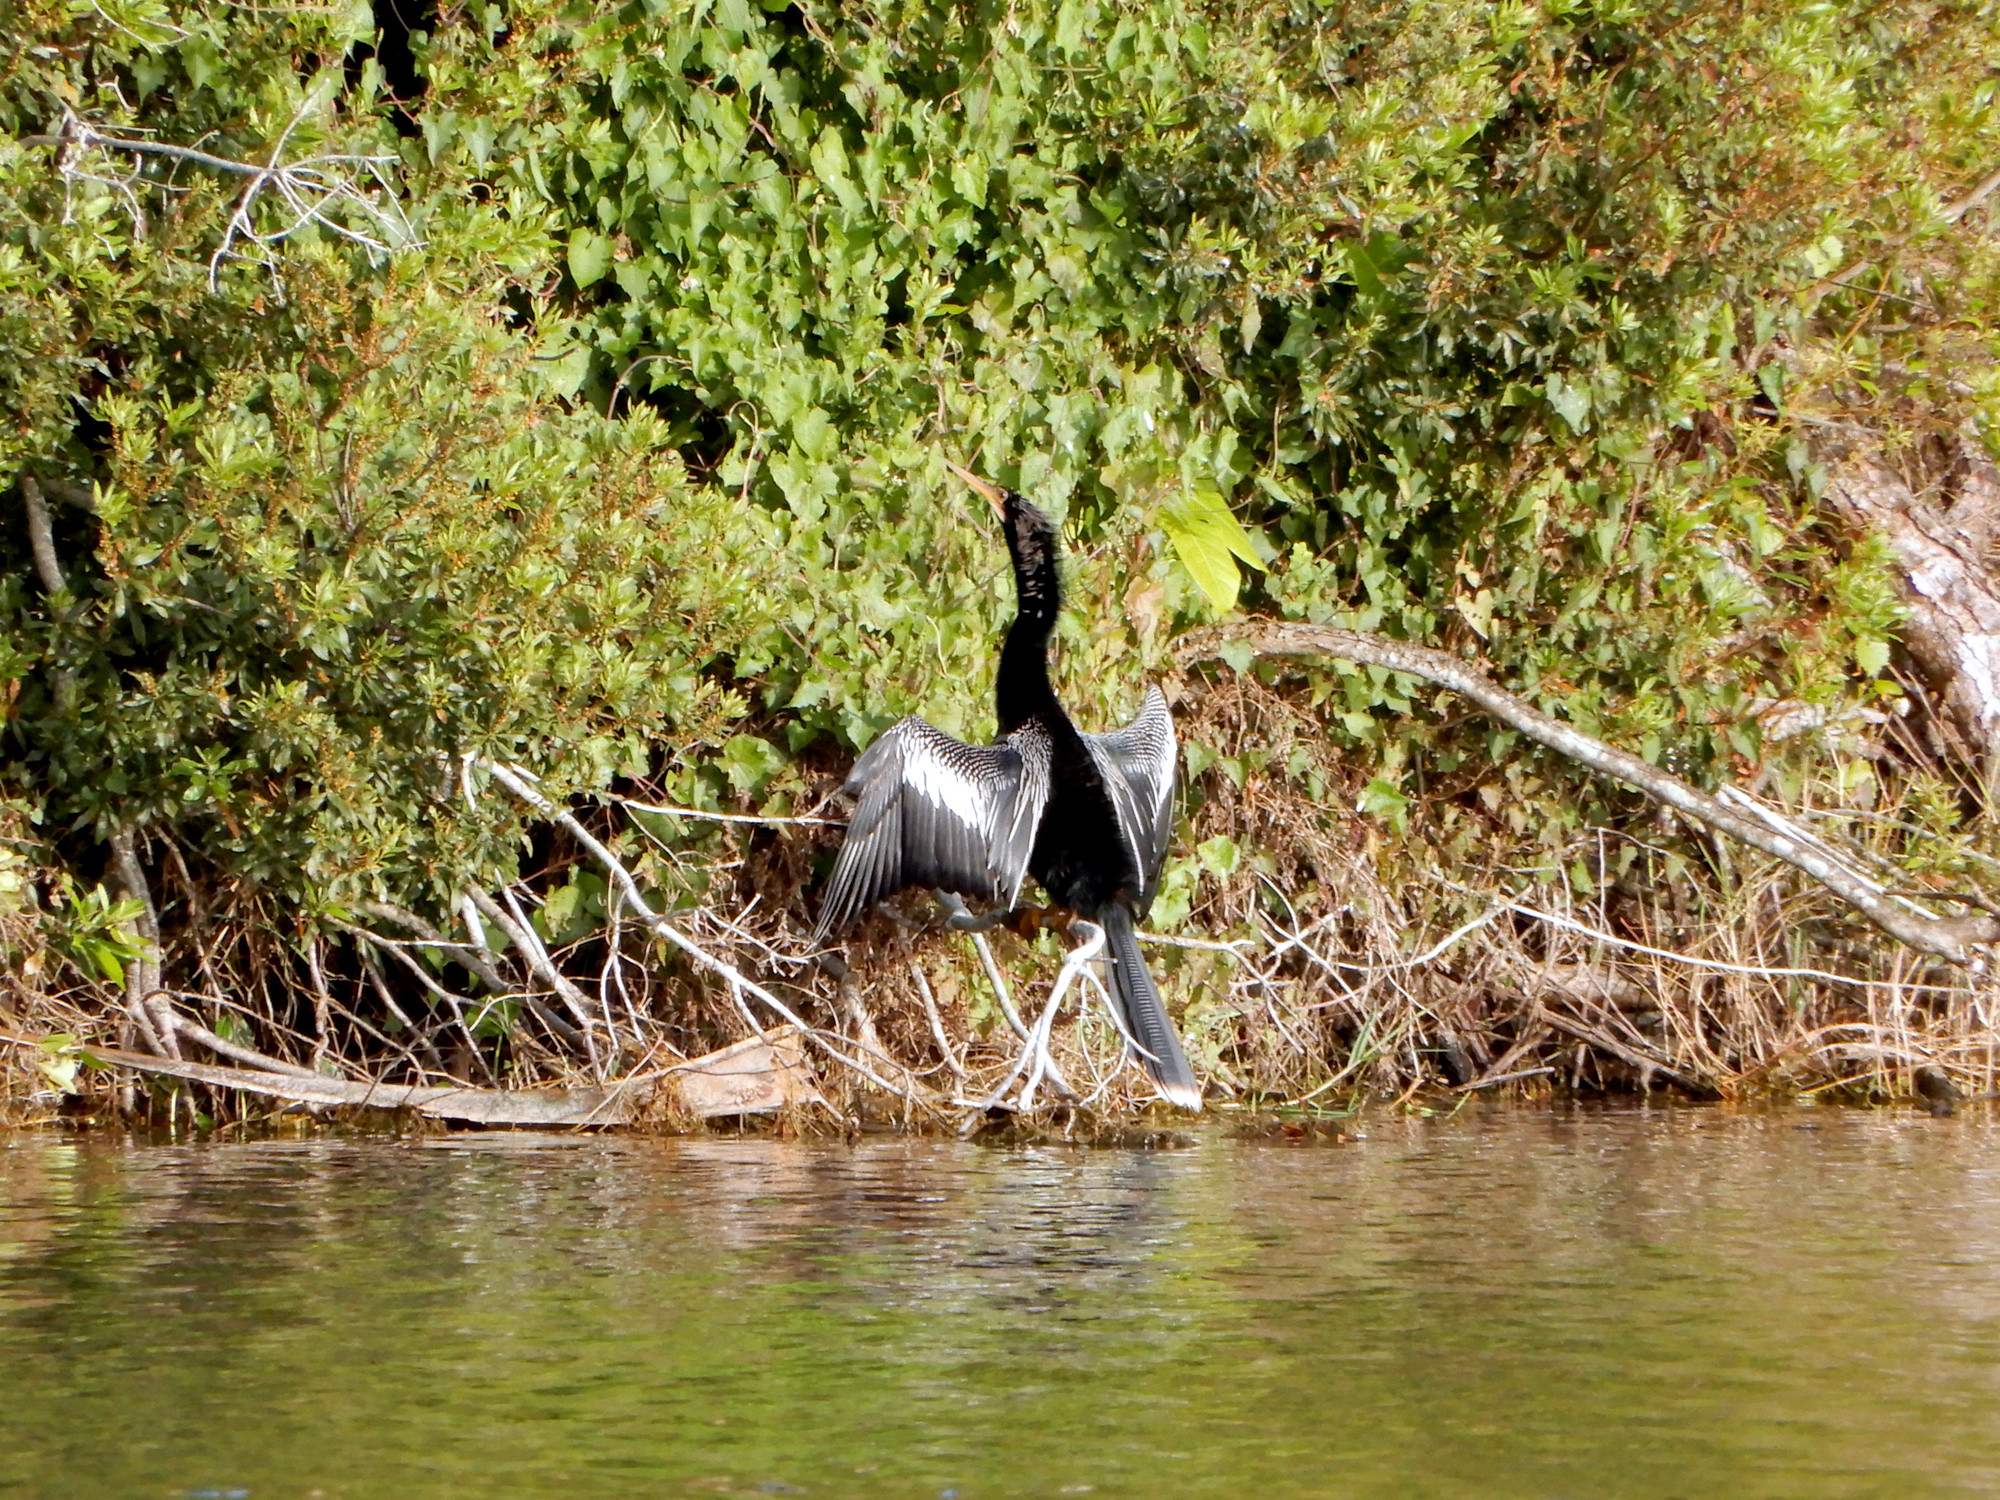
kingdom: Animalia
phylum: Chordata
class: Aves
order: Suliformes
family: Anhingidae
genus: Anhinga
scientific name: Anhinga anhinga
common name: Anhinga
